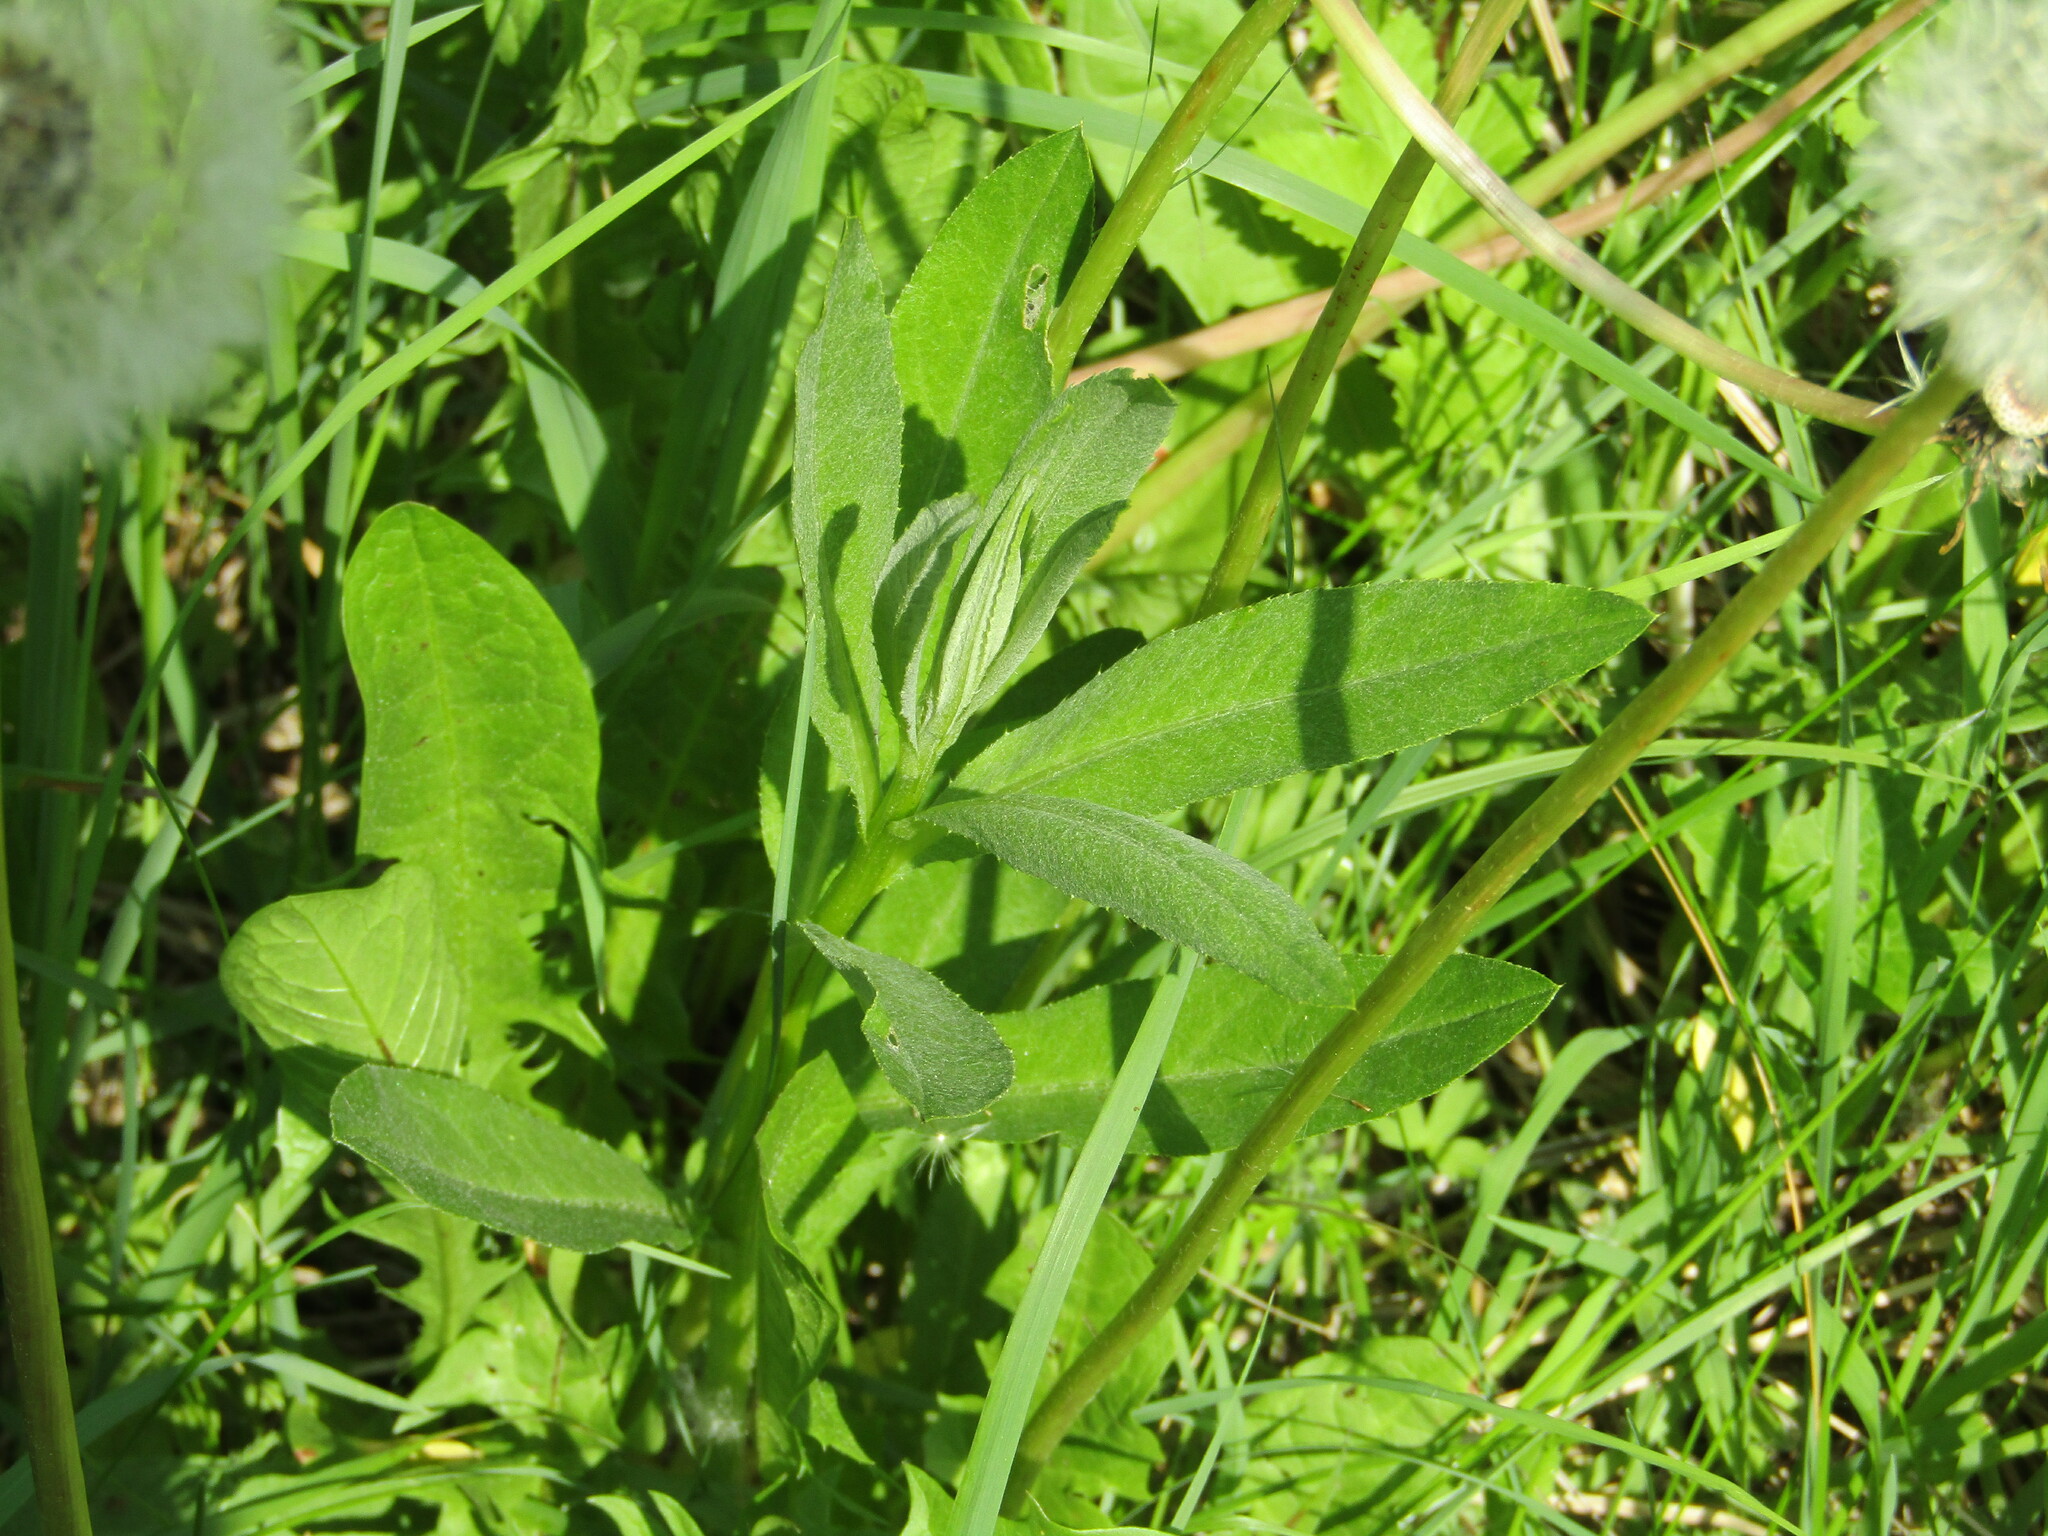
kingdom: Plantae
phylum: Tracheophyta
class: Magnoliopsida
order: Asterales
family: Asteraceae
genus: Cirsium
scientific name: Cirsium arvense
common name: Creeping thistle
